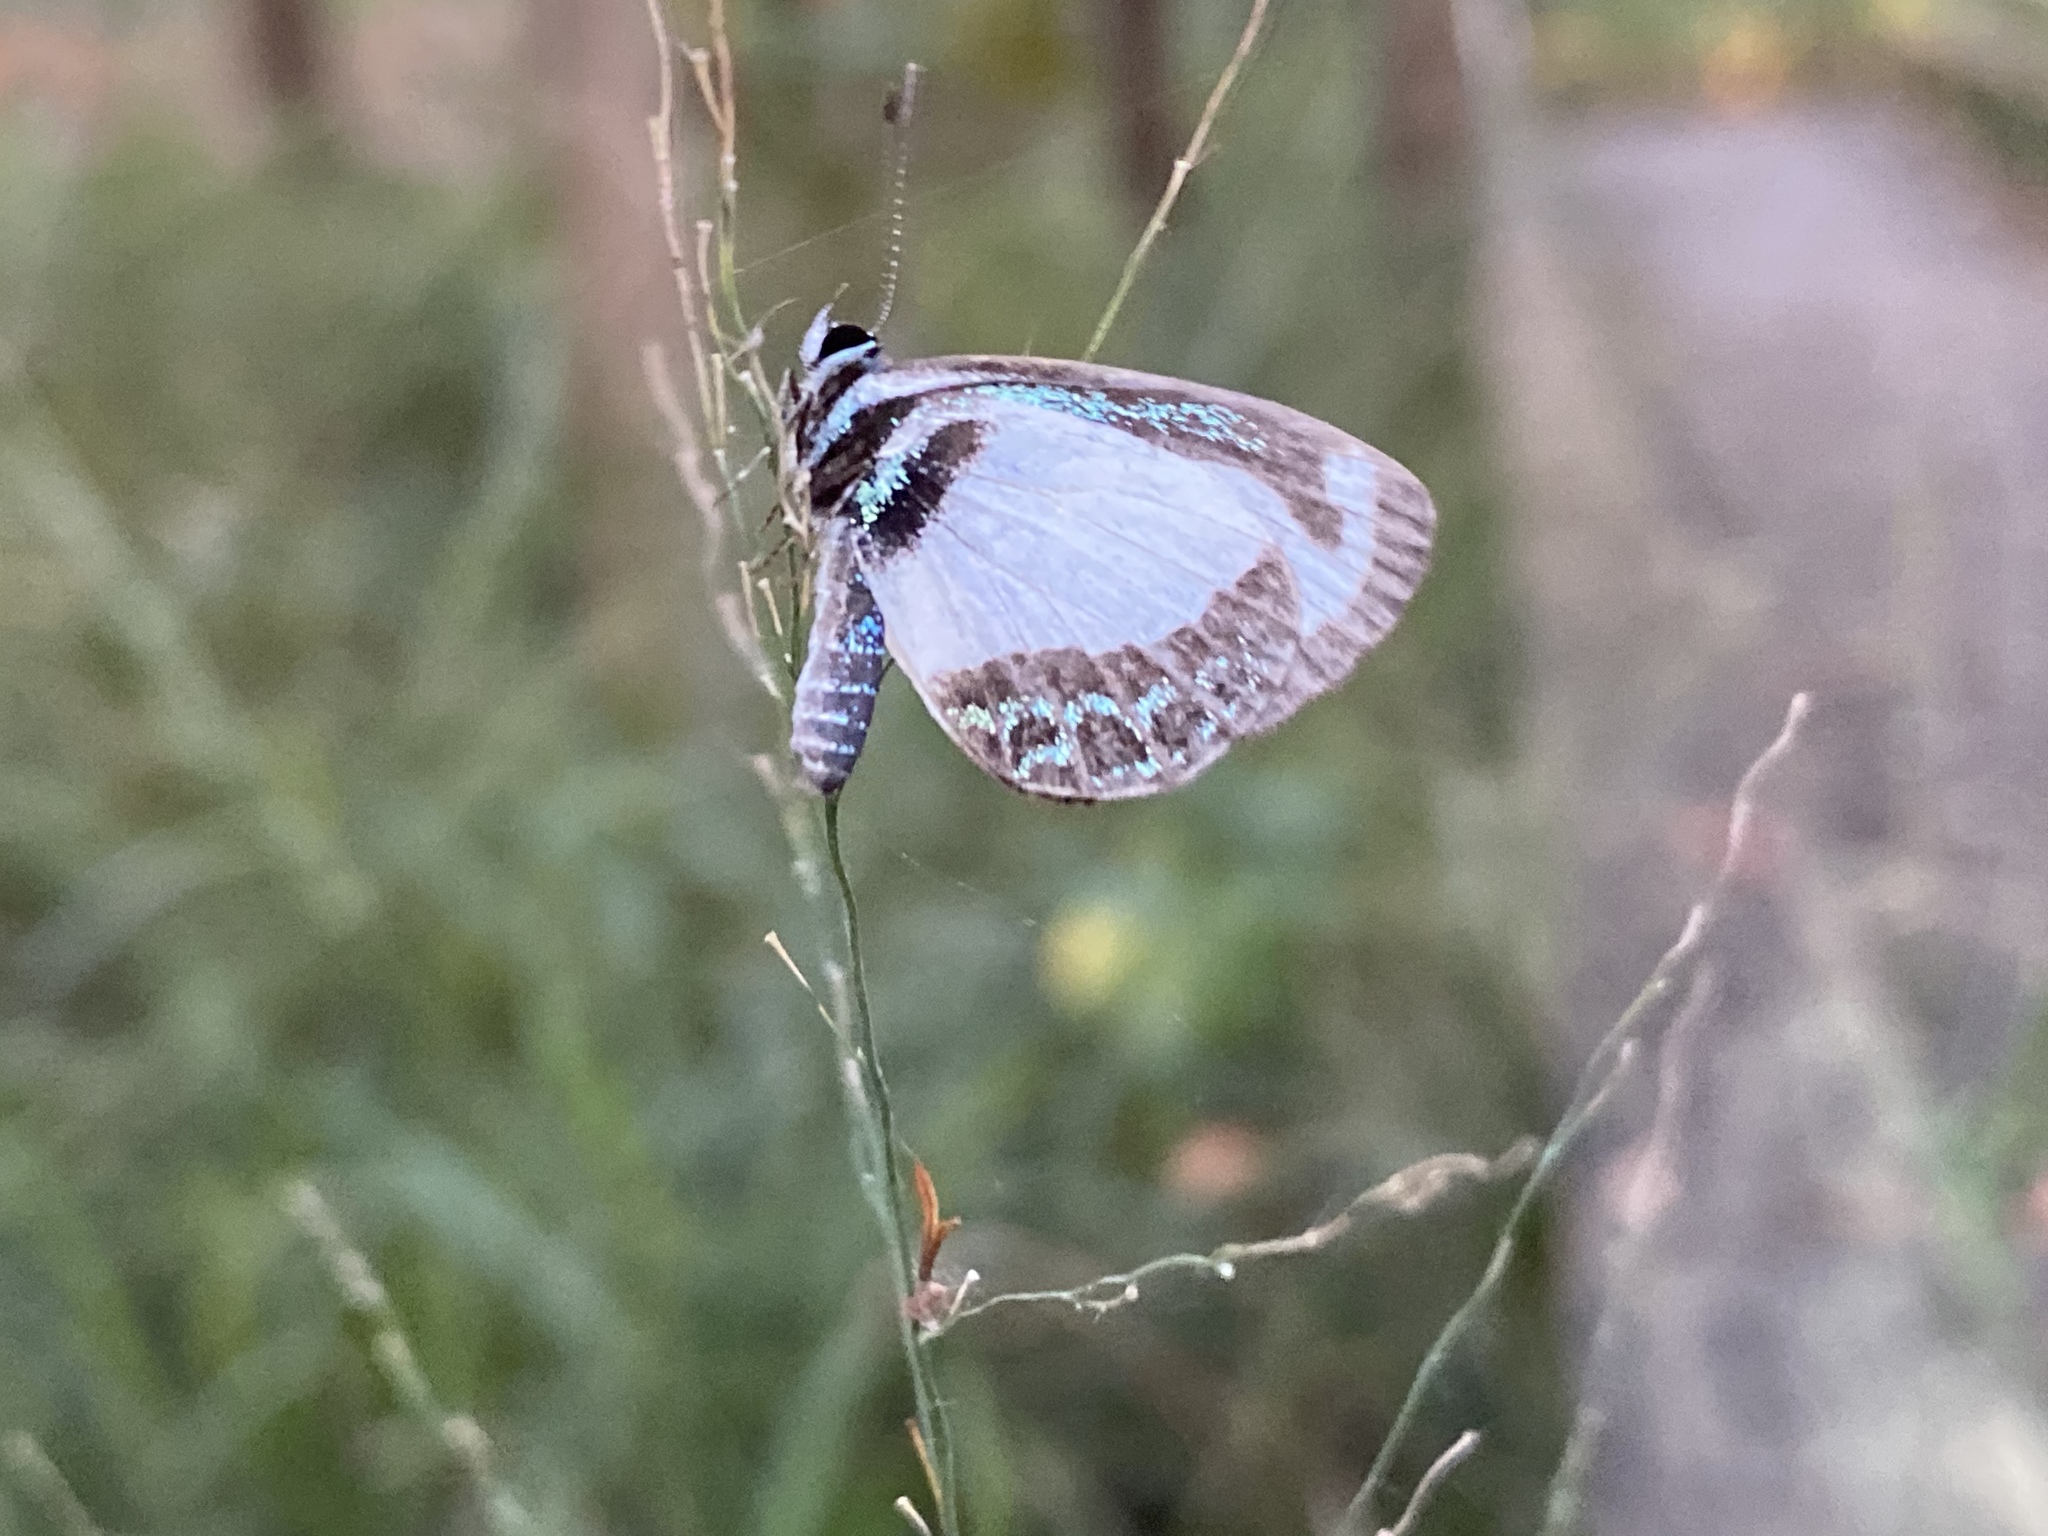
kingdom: Animalia
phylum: Arthropoda
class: Insecta
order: Lepidoptera
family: Lycaenidae
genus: Psychonotis
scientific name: Psychonotis caelius
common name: Small green banded blue
